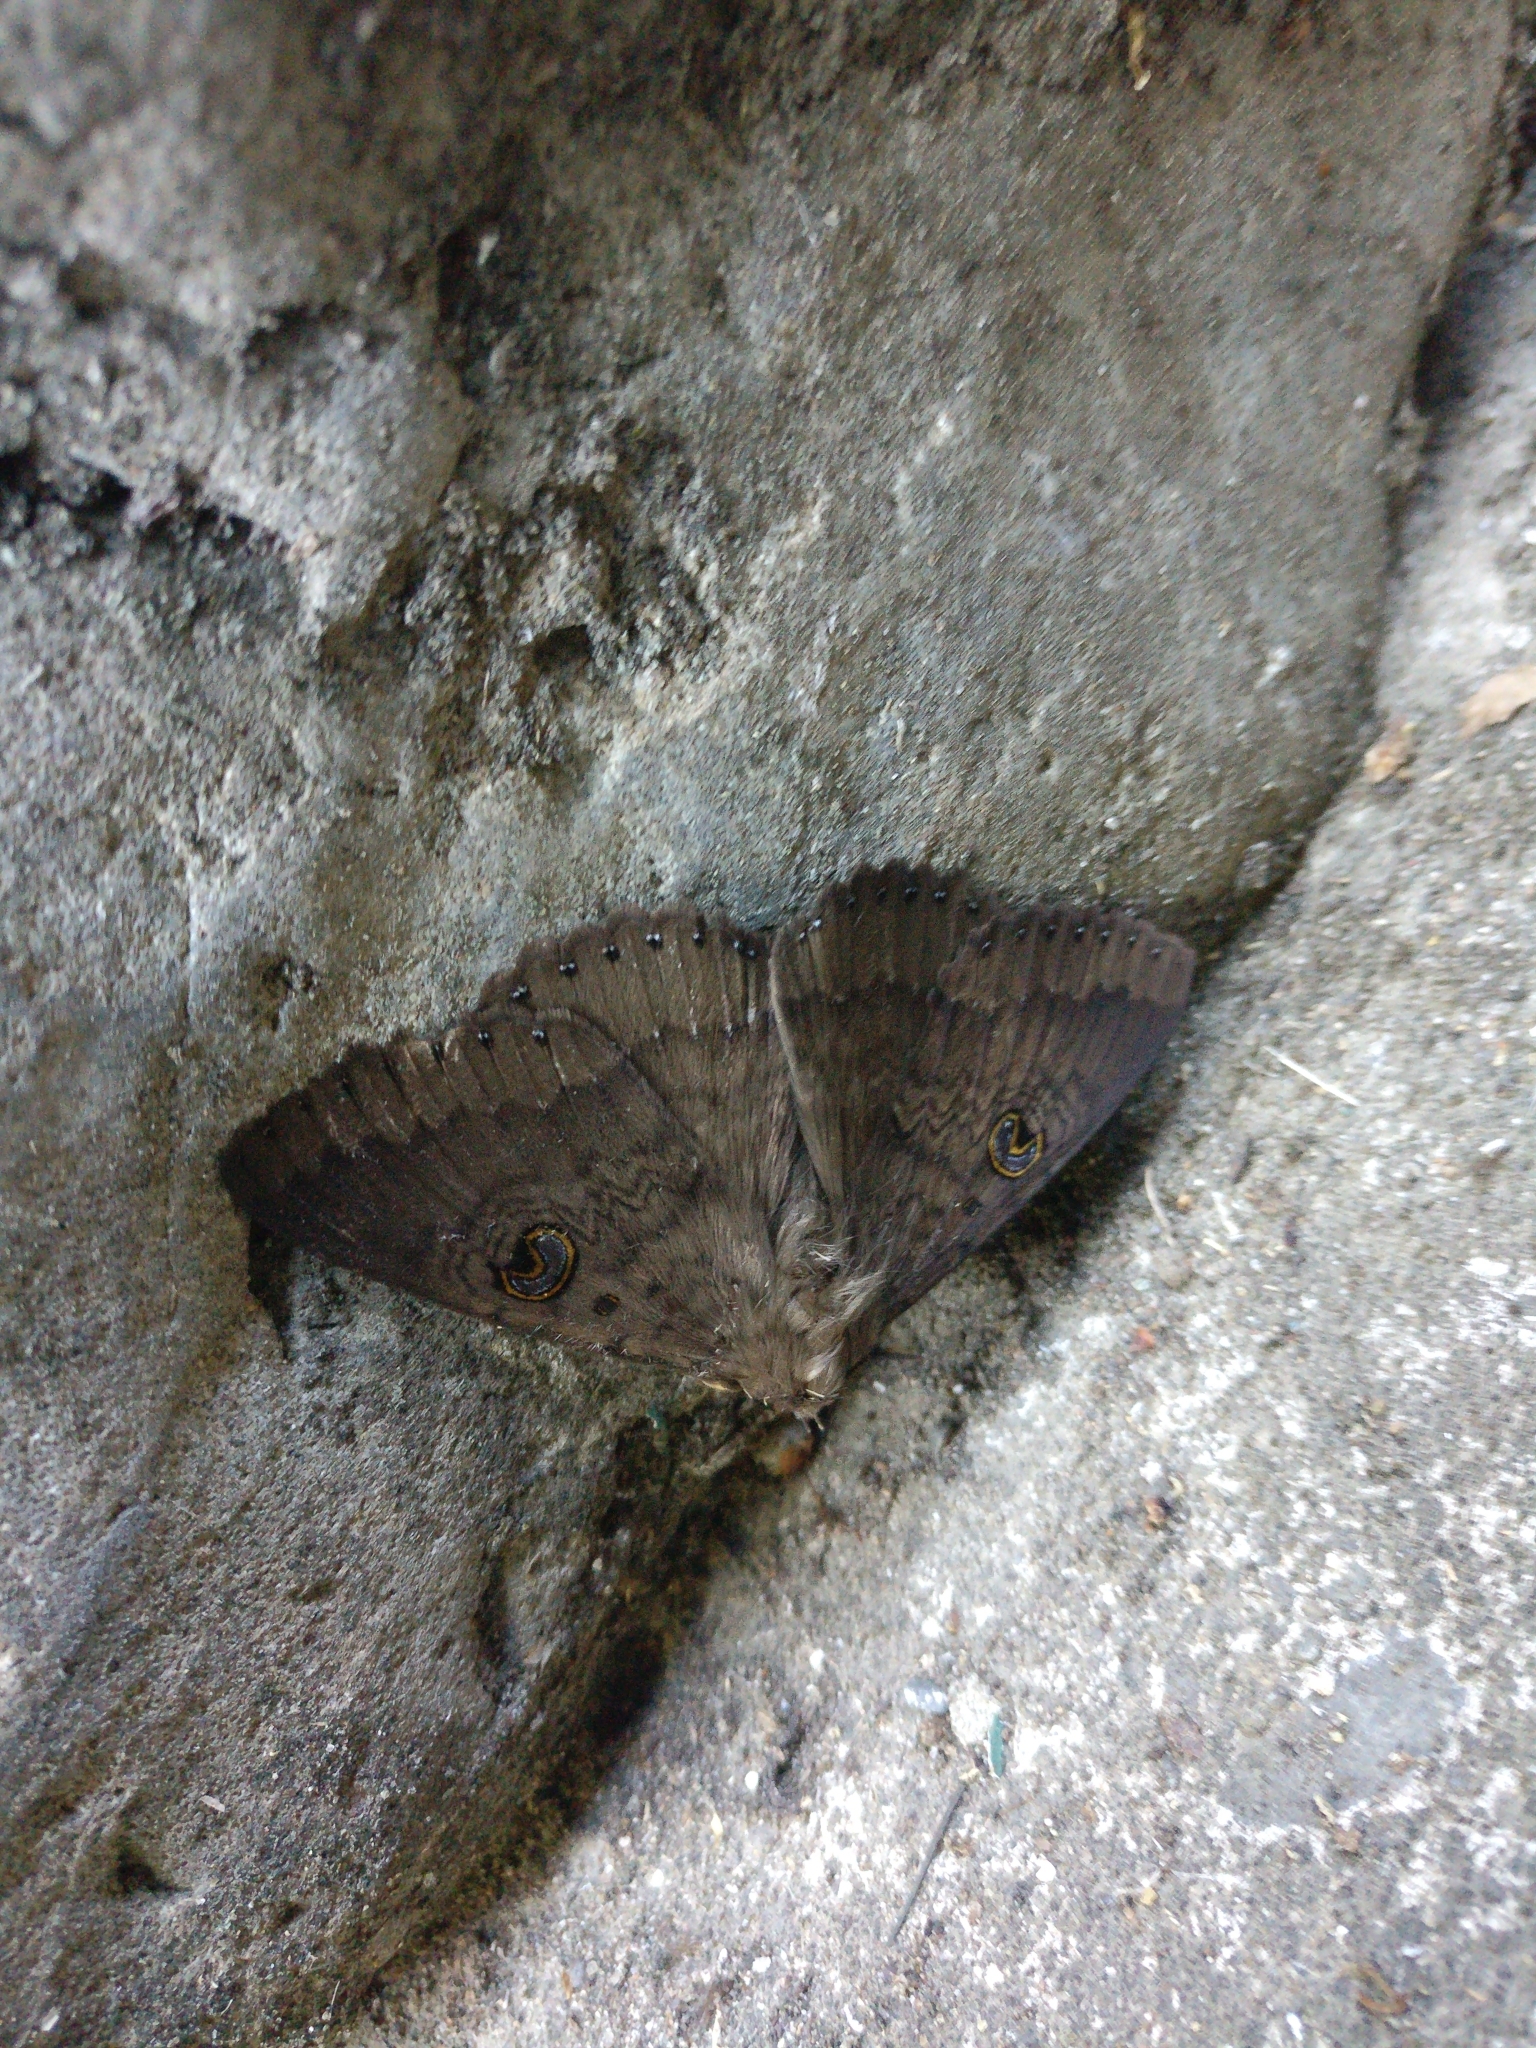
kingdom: Animalia
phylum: Arthropoda
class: Insecta
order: Lepidoptera
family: Erebidae
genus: Dasypodia
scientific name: Dasypodia cymatodes
